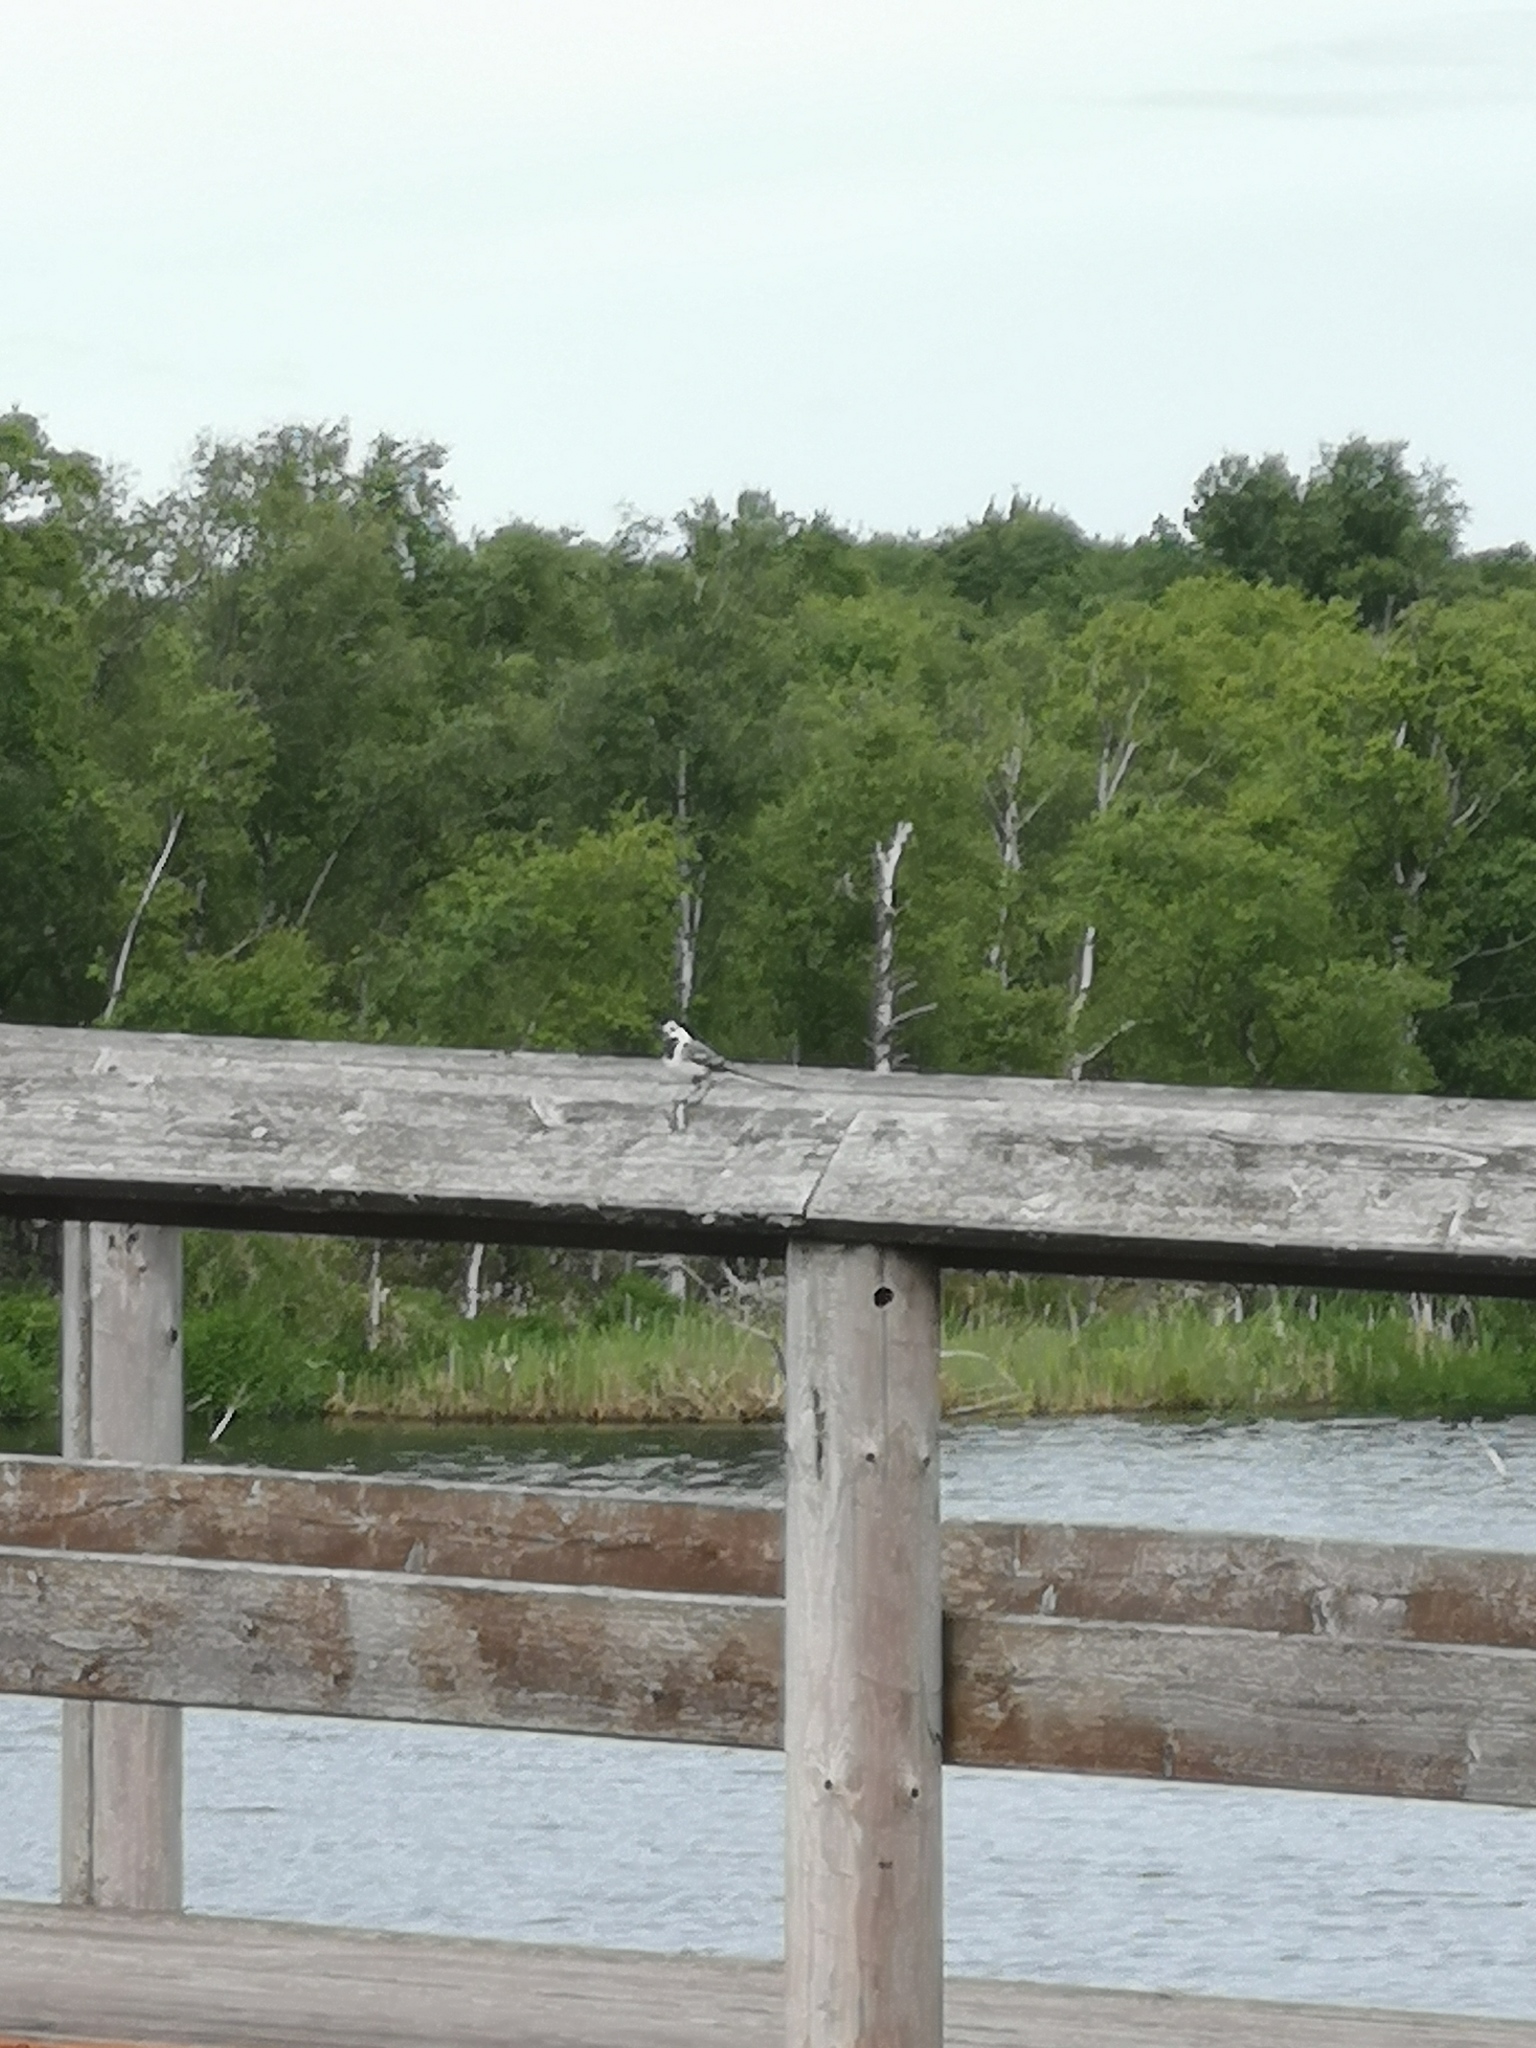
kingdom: Animalia
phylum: Chordata
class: Aves
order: Passeriformes
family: Motacillidae
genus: Motacilla
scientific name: Motacilla alba
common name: White wagtail
